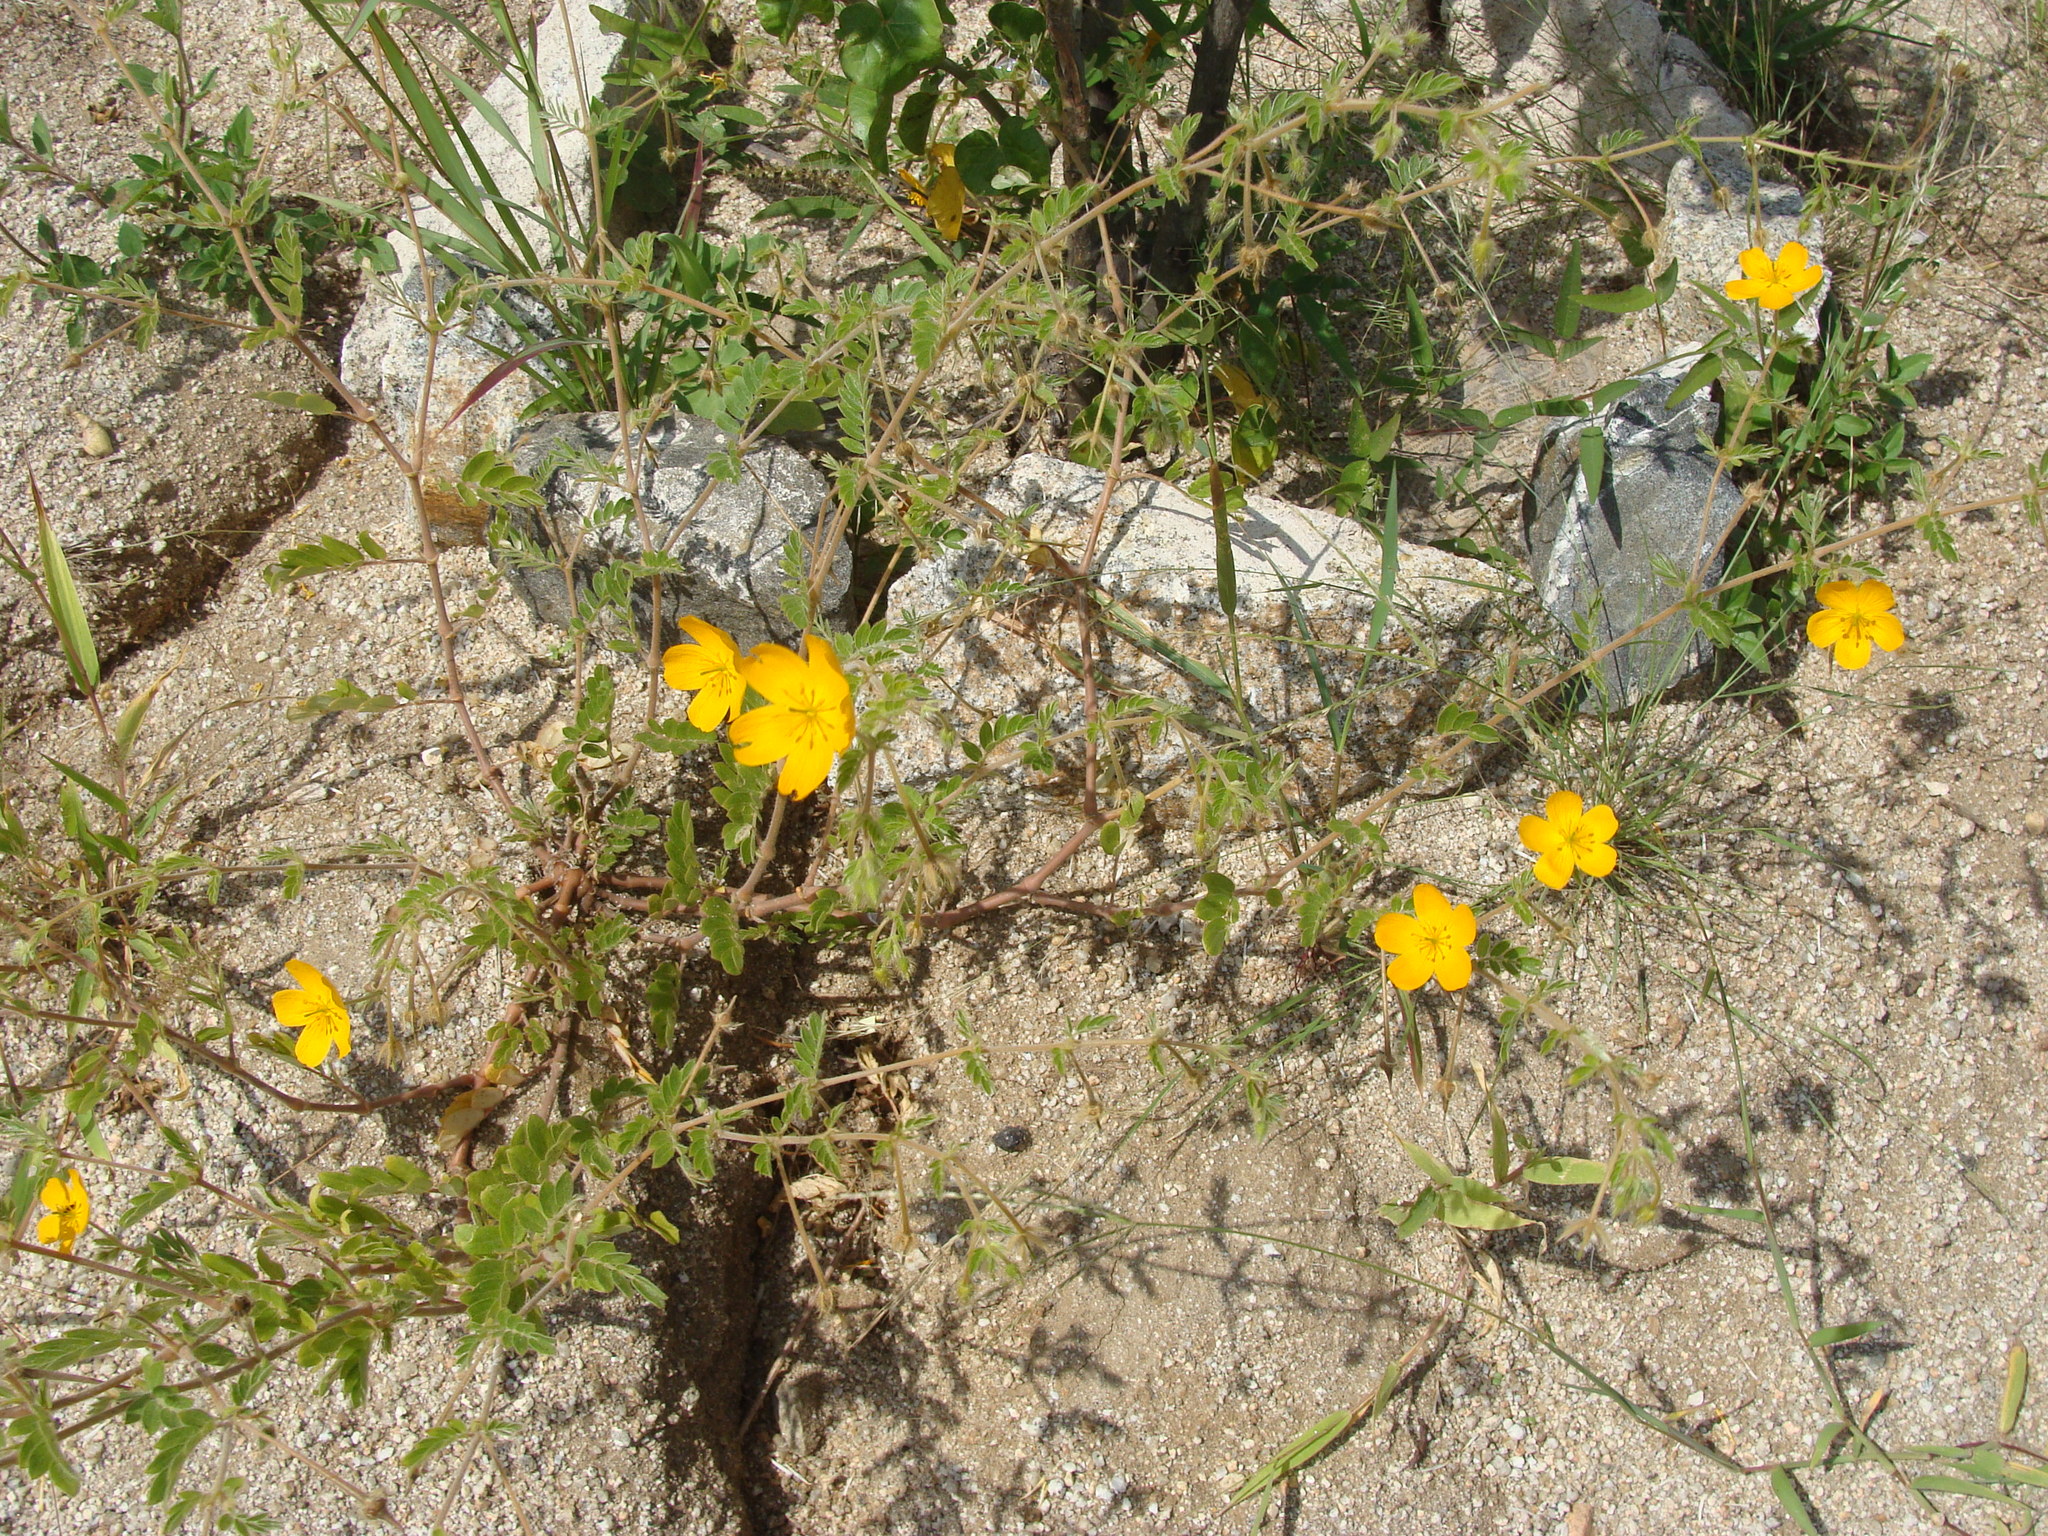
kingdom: Plantae
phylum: Tracheophyta
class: Magnoliopsida
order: Zygophyllales
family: Zygophyllaceae
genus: Kallstroemia
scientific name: Kallstroemia peninsularis
